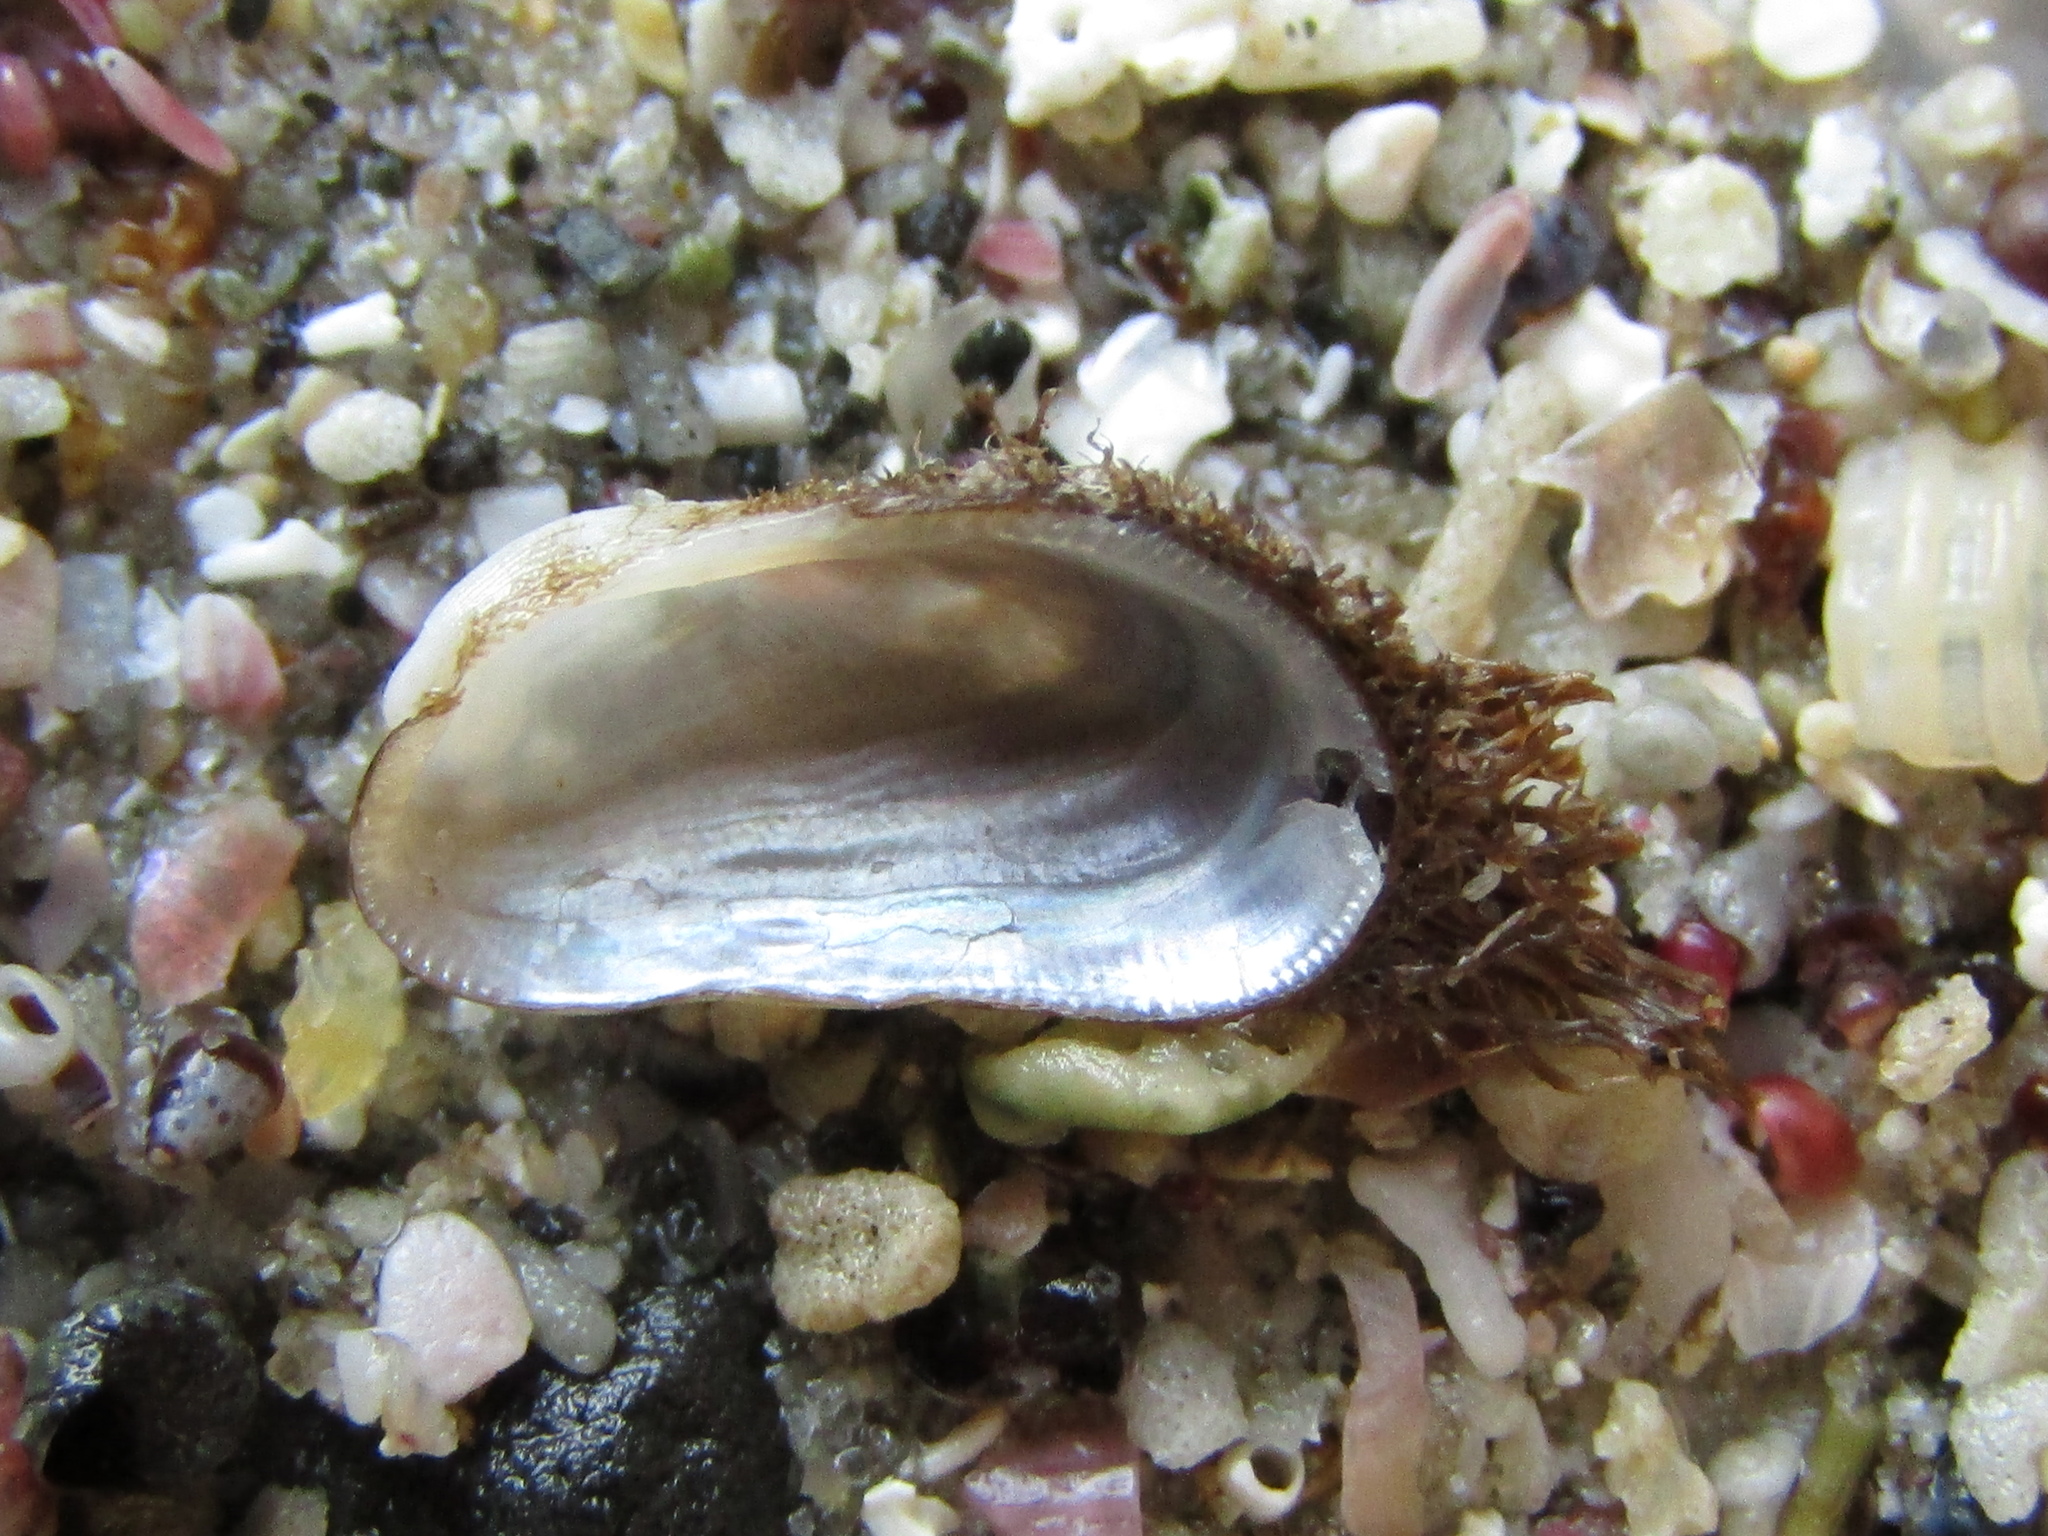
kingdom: Animalia
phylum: Mollusca
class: Bivalvia
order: Mytilida
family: Mytilidae
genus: Gregariella
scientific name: Gregariella barbata
